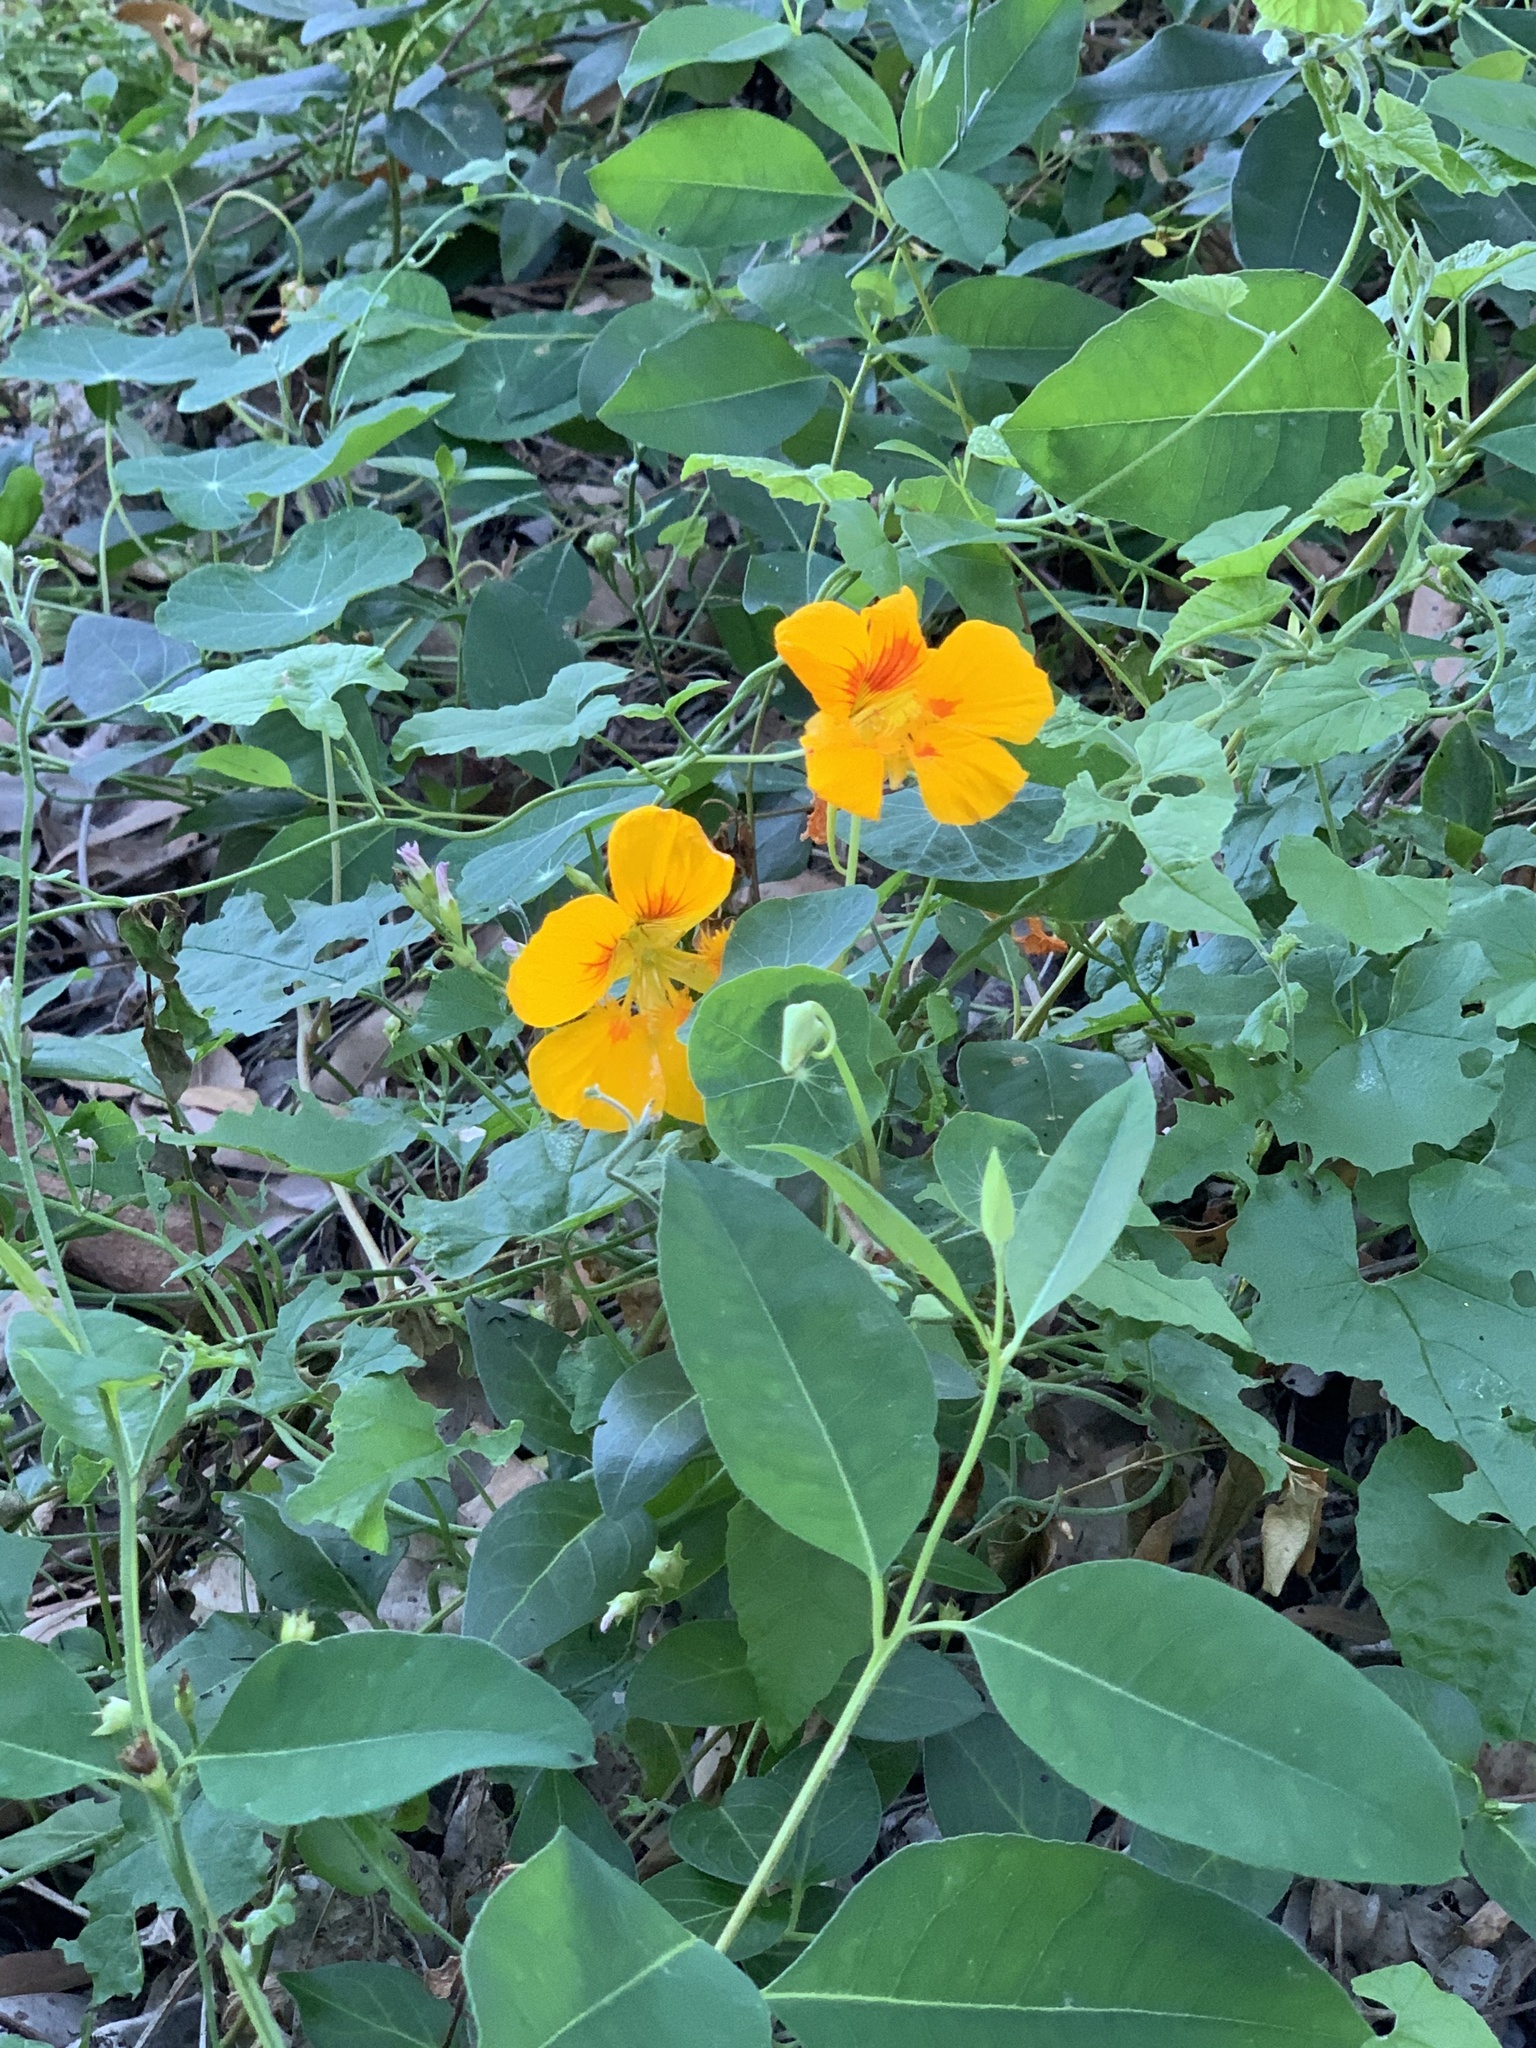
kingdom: Plantae
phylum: Tracheophyta
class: Magnoliopsida
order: Brassicales
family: Tropaeolaceae
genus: Tropaeolum
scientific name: Tropaeolum majus
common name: Nasturtium
